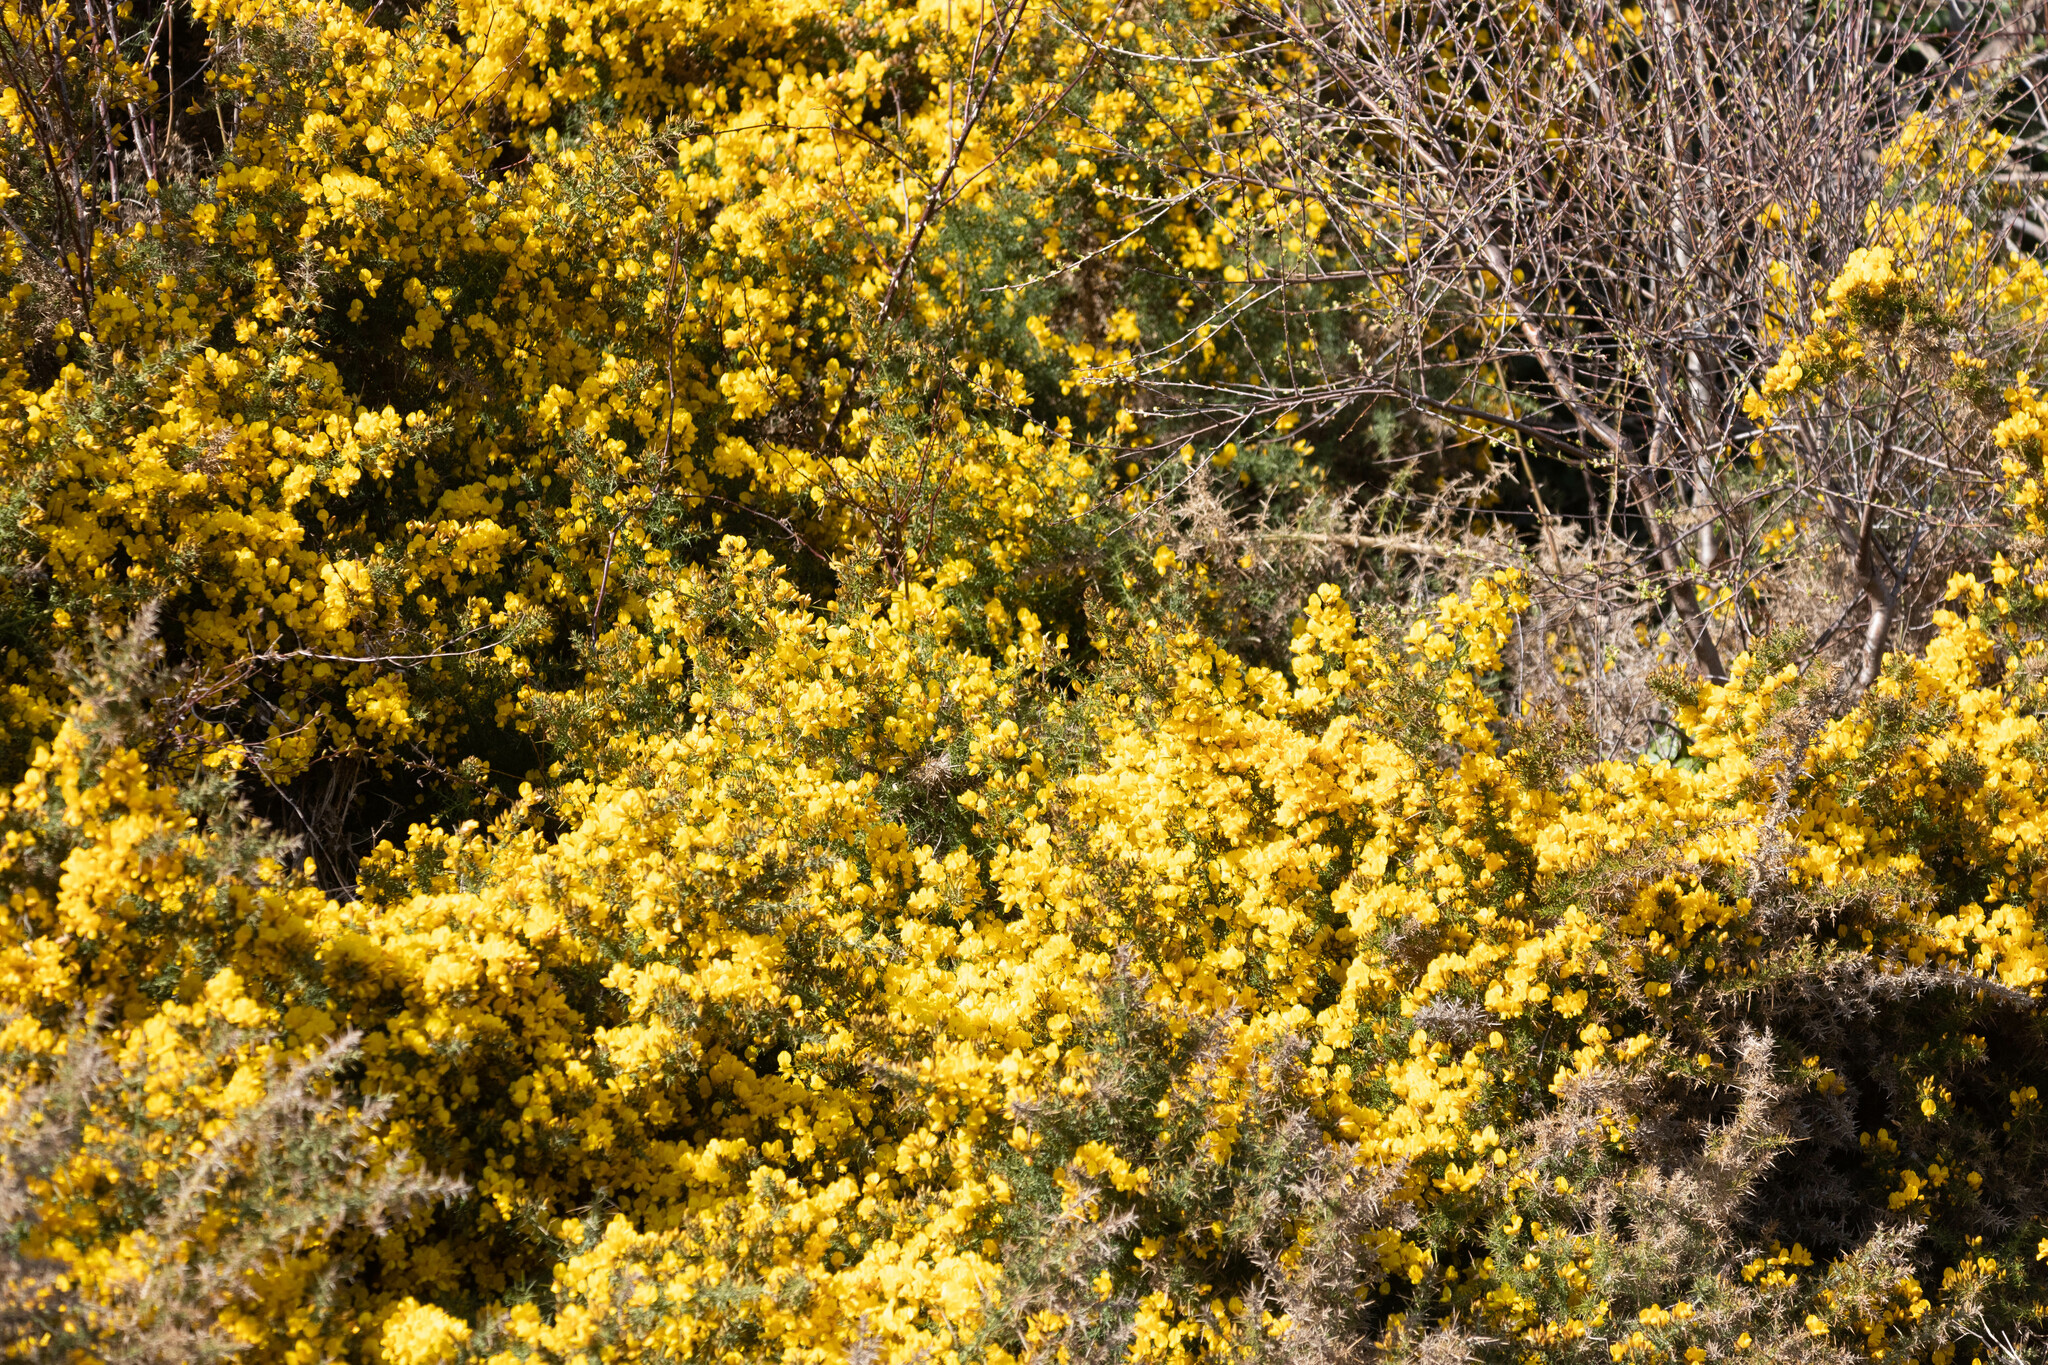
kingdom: Plantae
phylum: Tracheophyta
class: Magnoliopsida
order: Fabales
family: Fabaceae
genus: Ulex
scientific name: Ulex europaeus
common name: Common gorse
